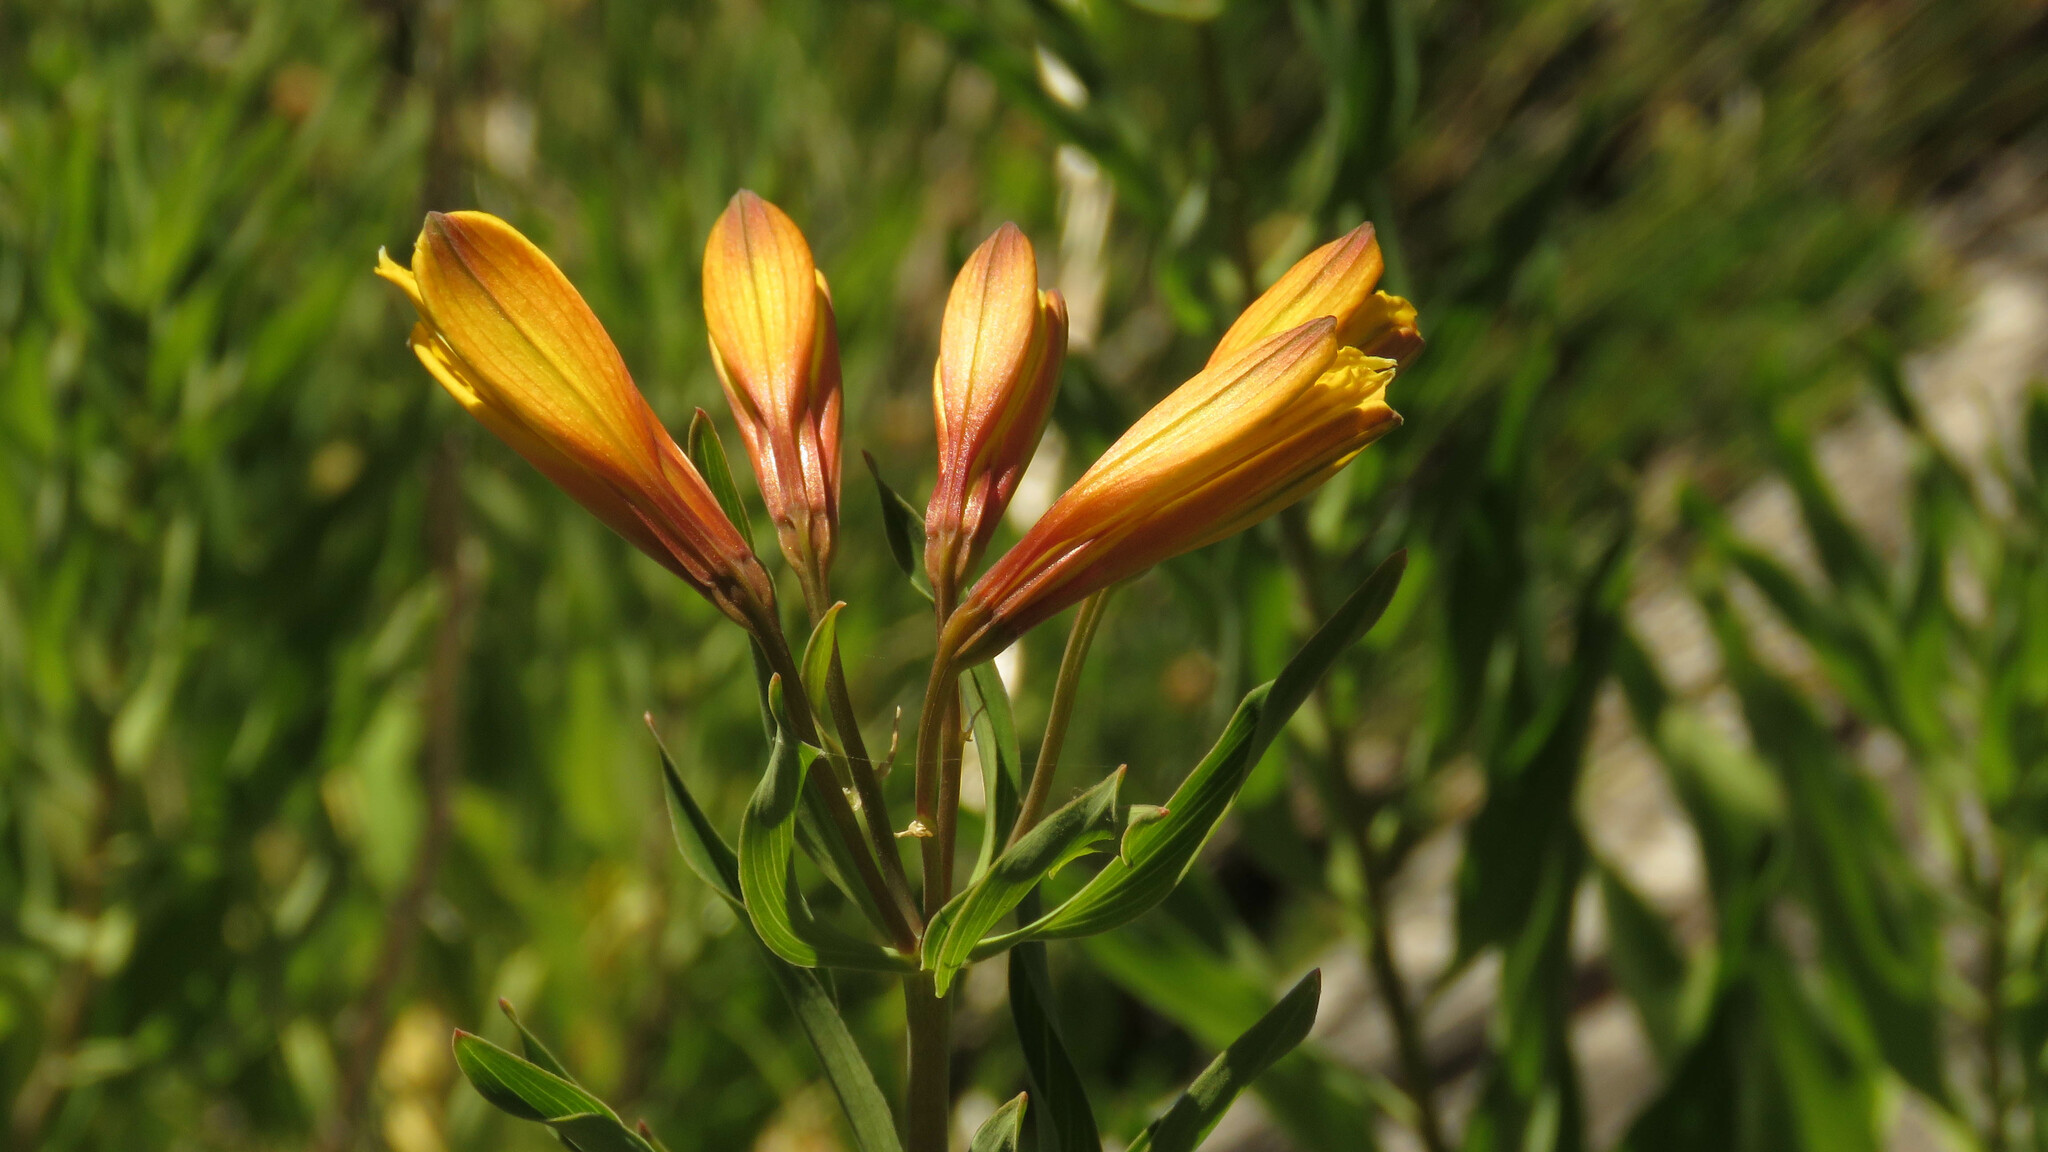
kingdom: Plantae
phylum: Tracheophyta
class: Liliopsida
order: Liliales
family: Alstroemeriaceae
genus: Alstroemeria
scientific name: Alstroemeria aurea
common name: Peruvian lily
